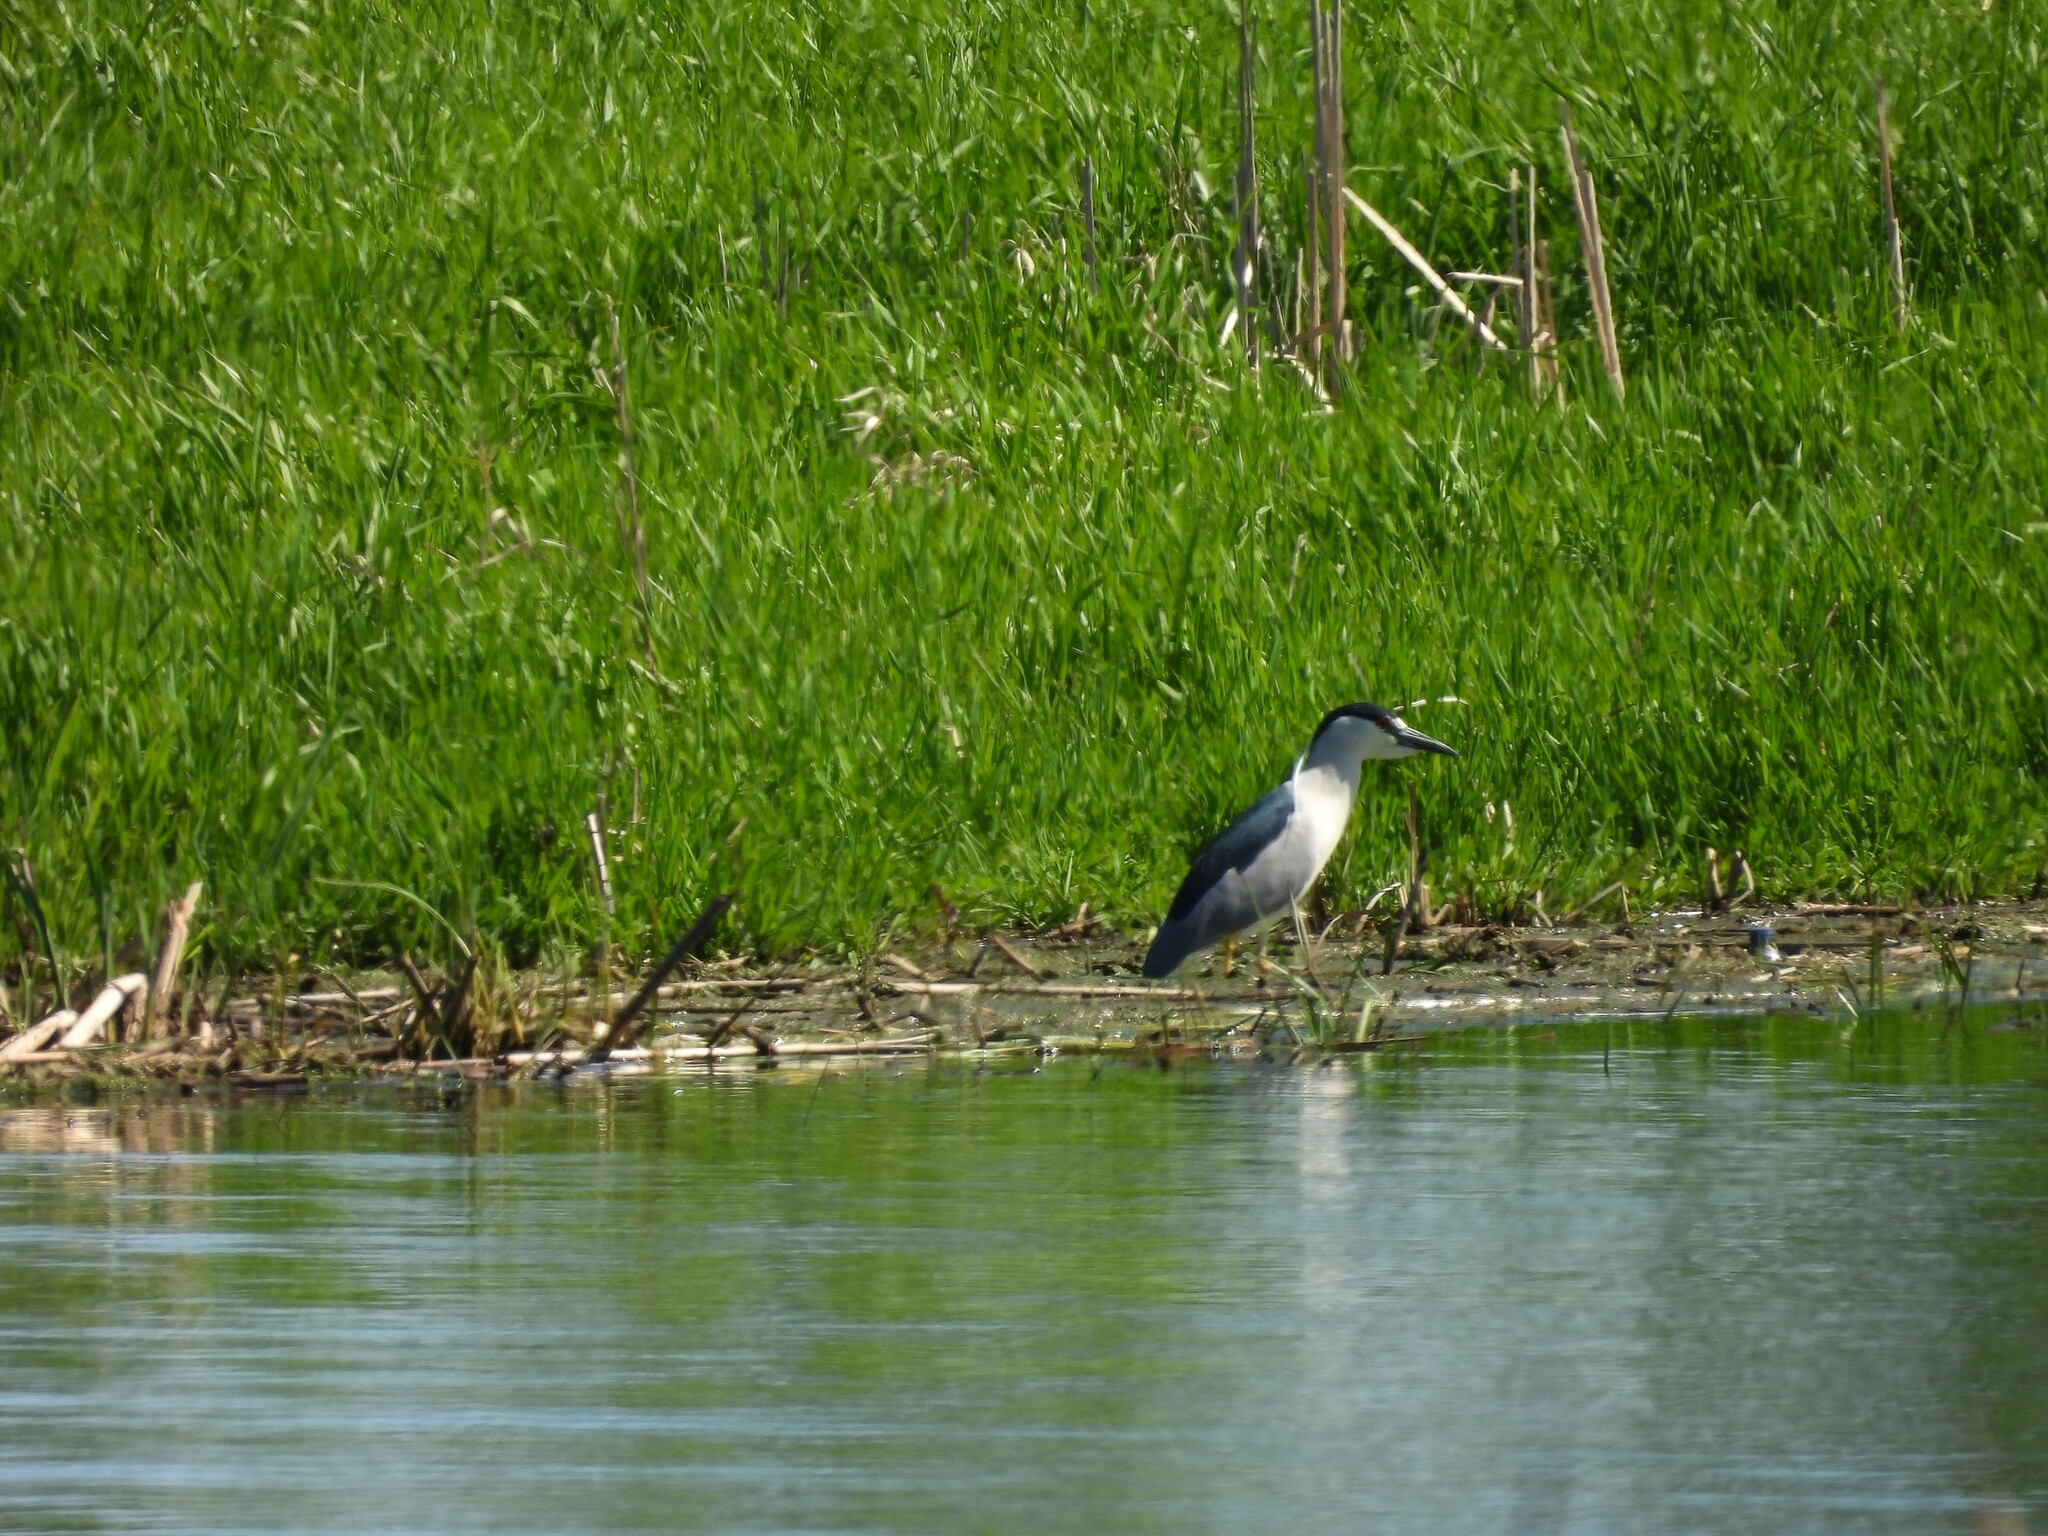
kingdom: Animalia
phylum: Chordata
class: Aves
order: Pelecaniformes
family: Ardeidae
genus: Nycticorax
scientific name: Nycticorax nycticorax
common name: Black-crowned night heron
